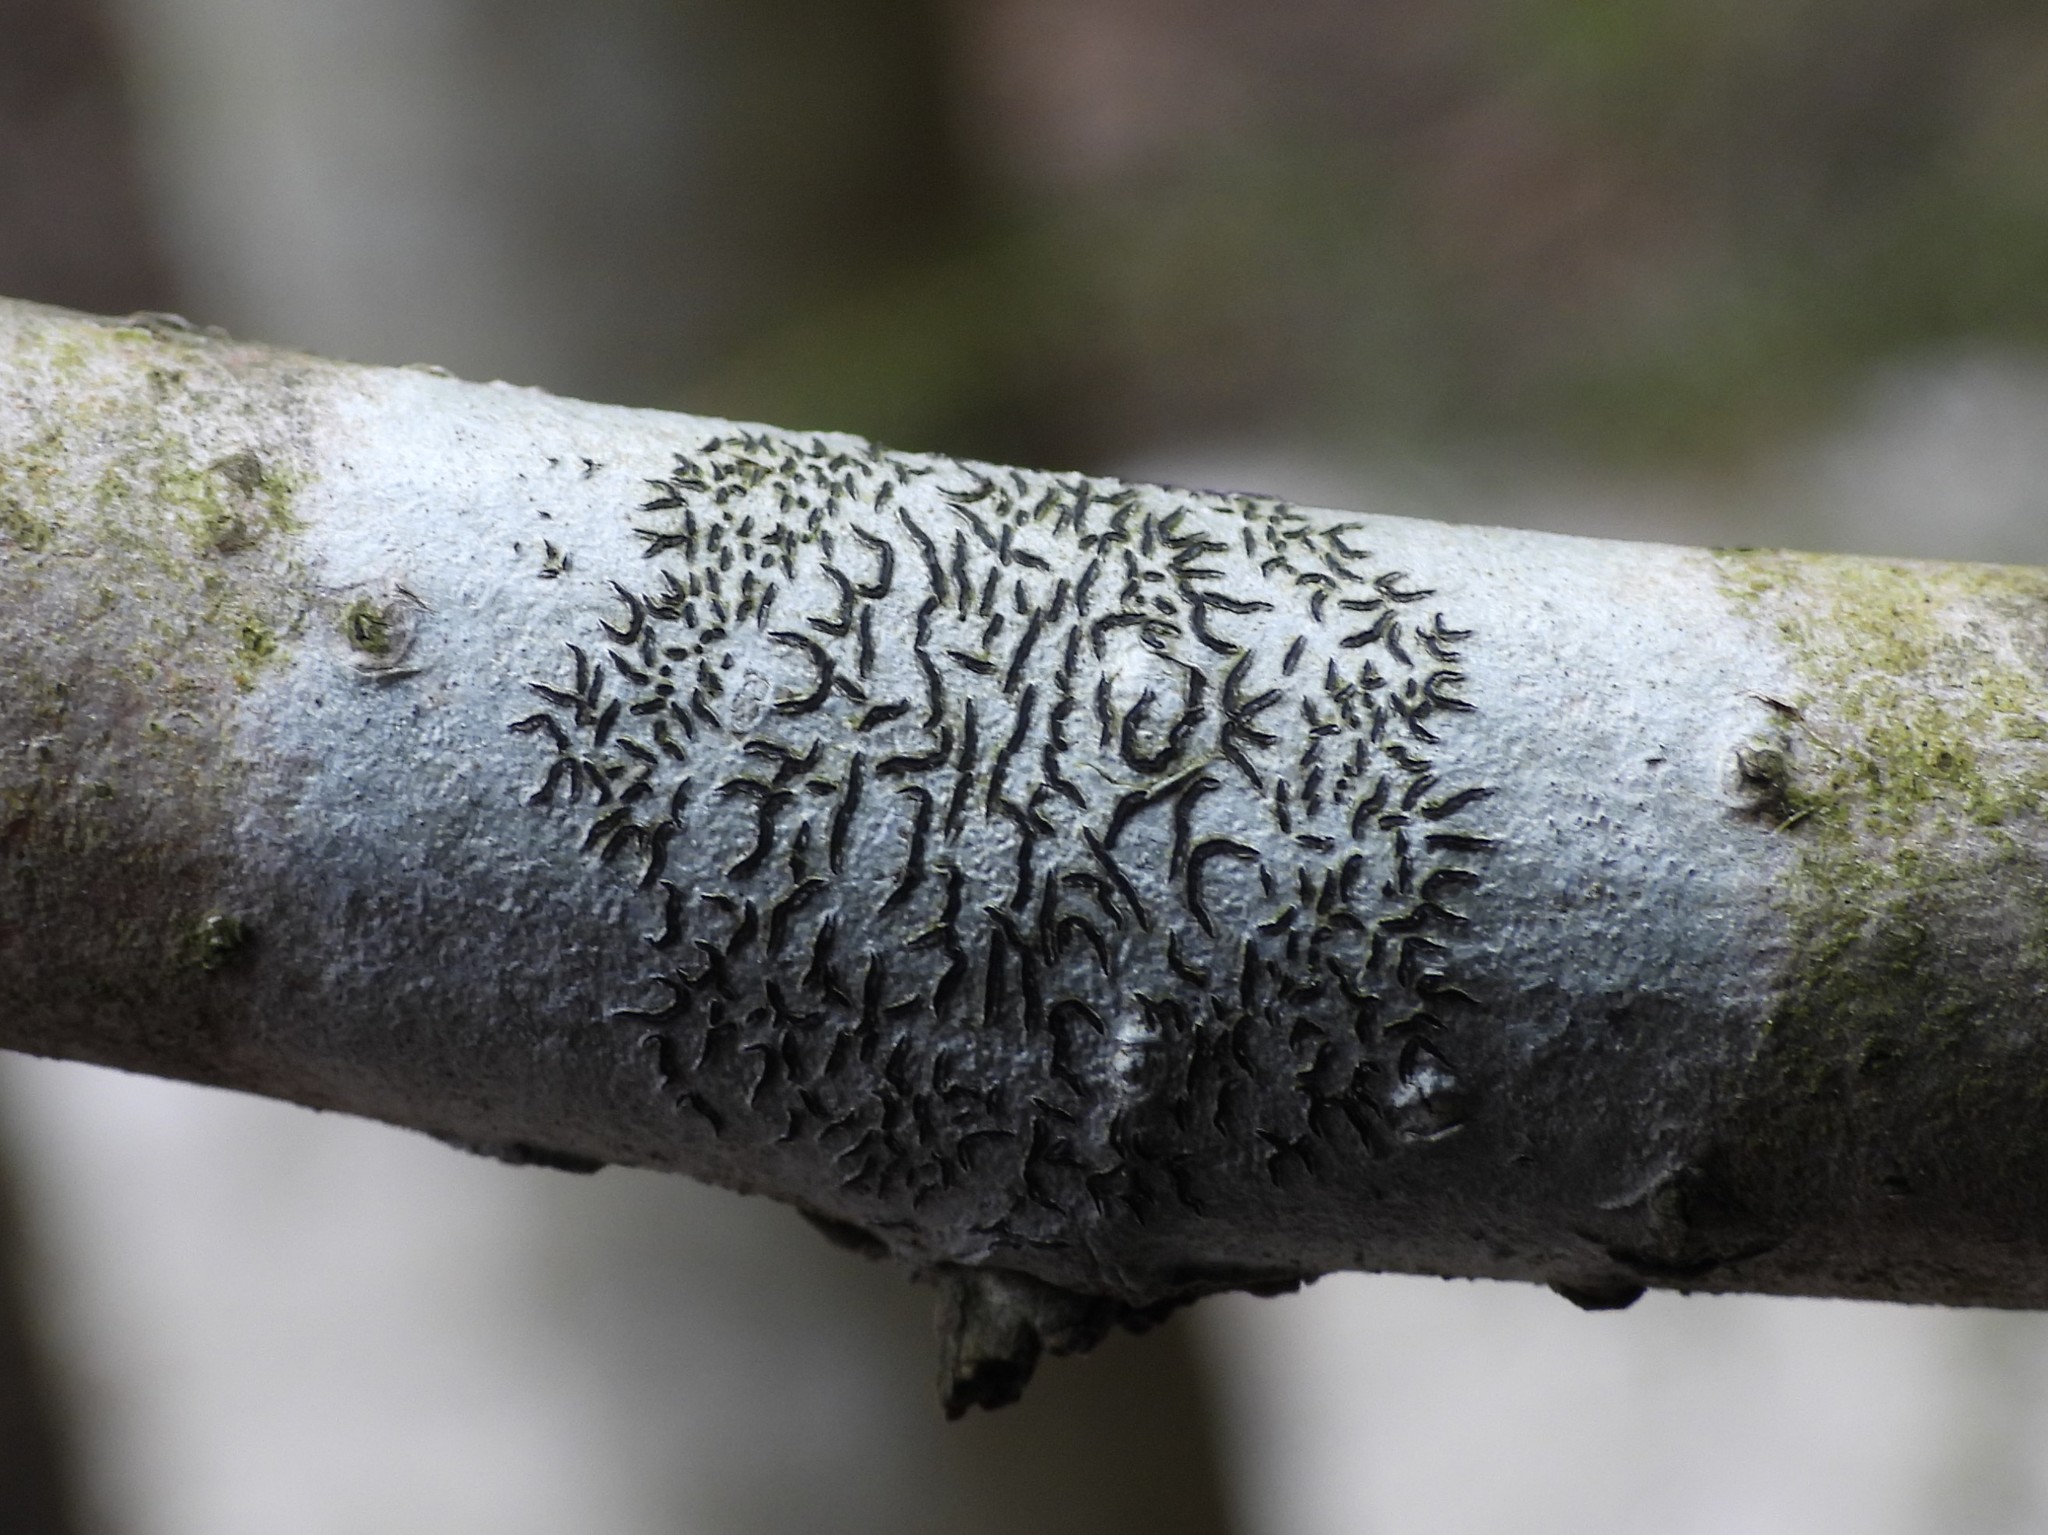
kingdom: Fungi
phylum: Ascomycota
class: Lecanoromycetes
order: Ostropales
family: Graphidaceae
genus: Graphis
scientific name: Graphis scripta
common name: Script lichen
